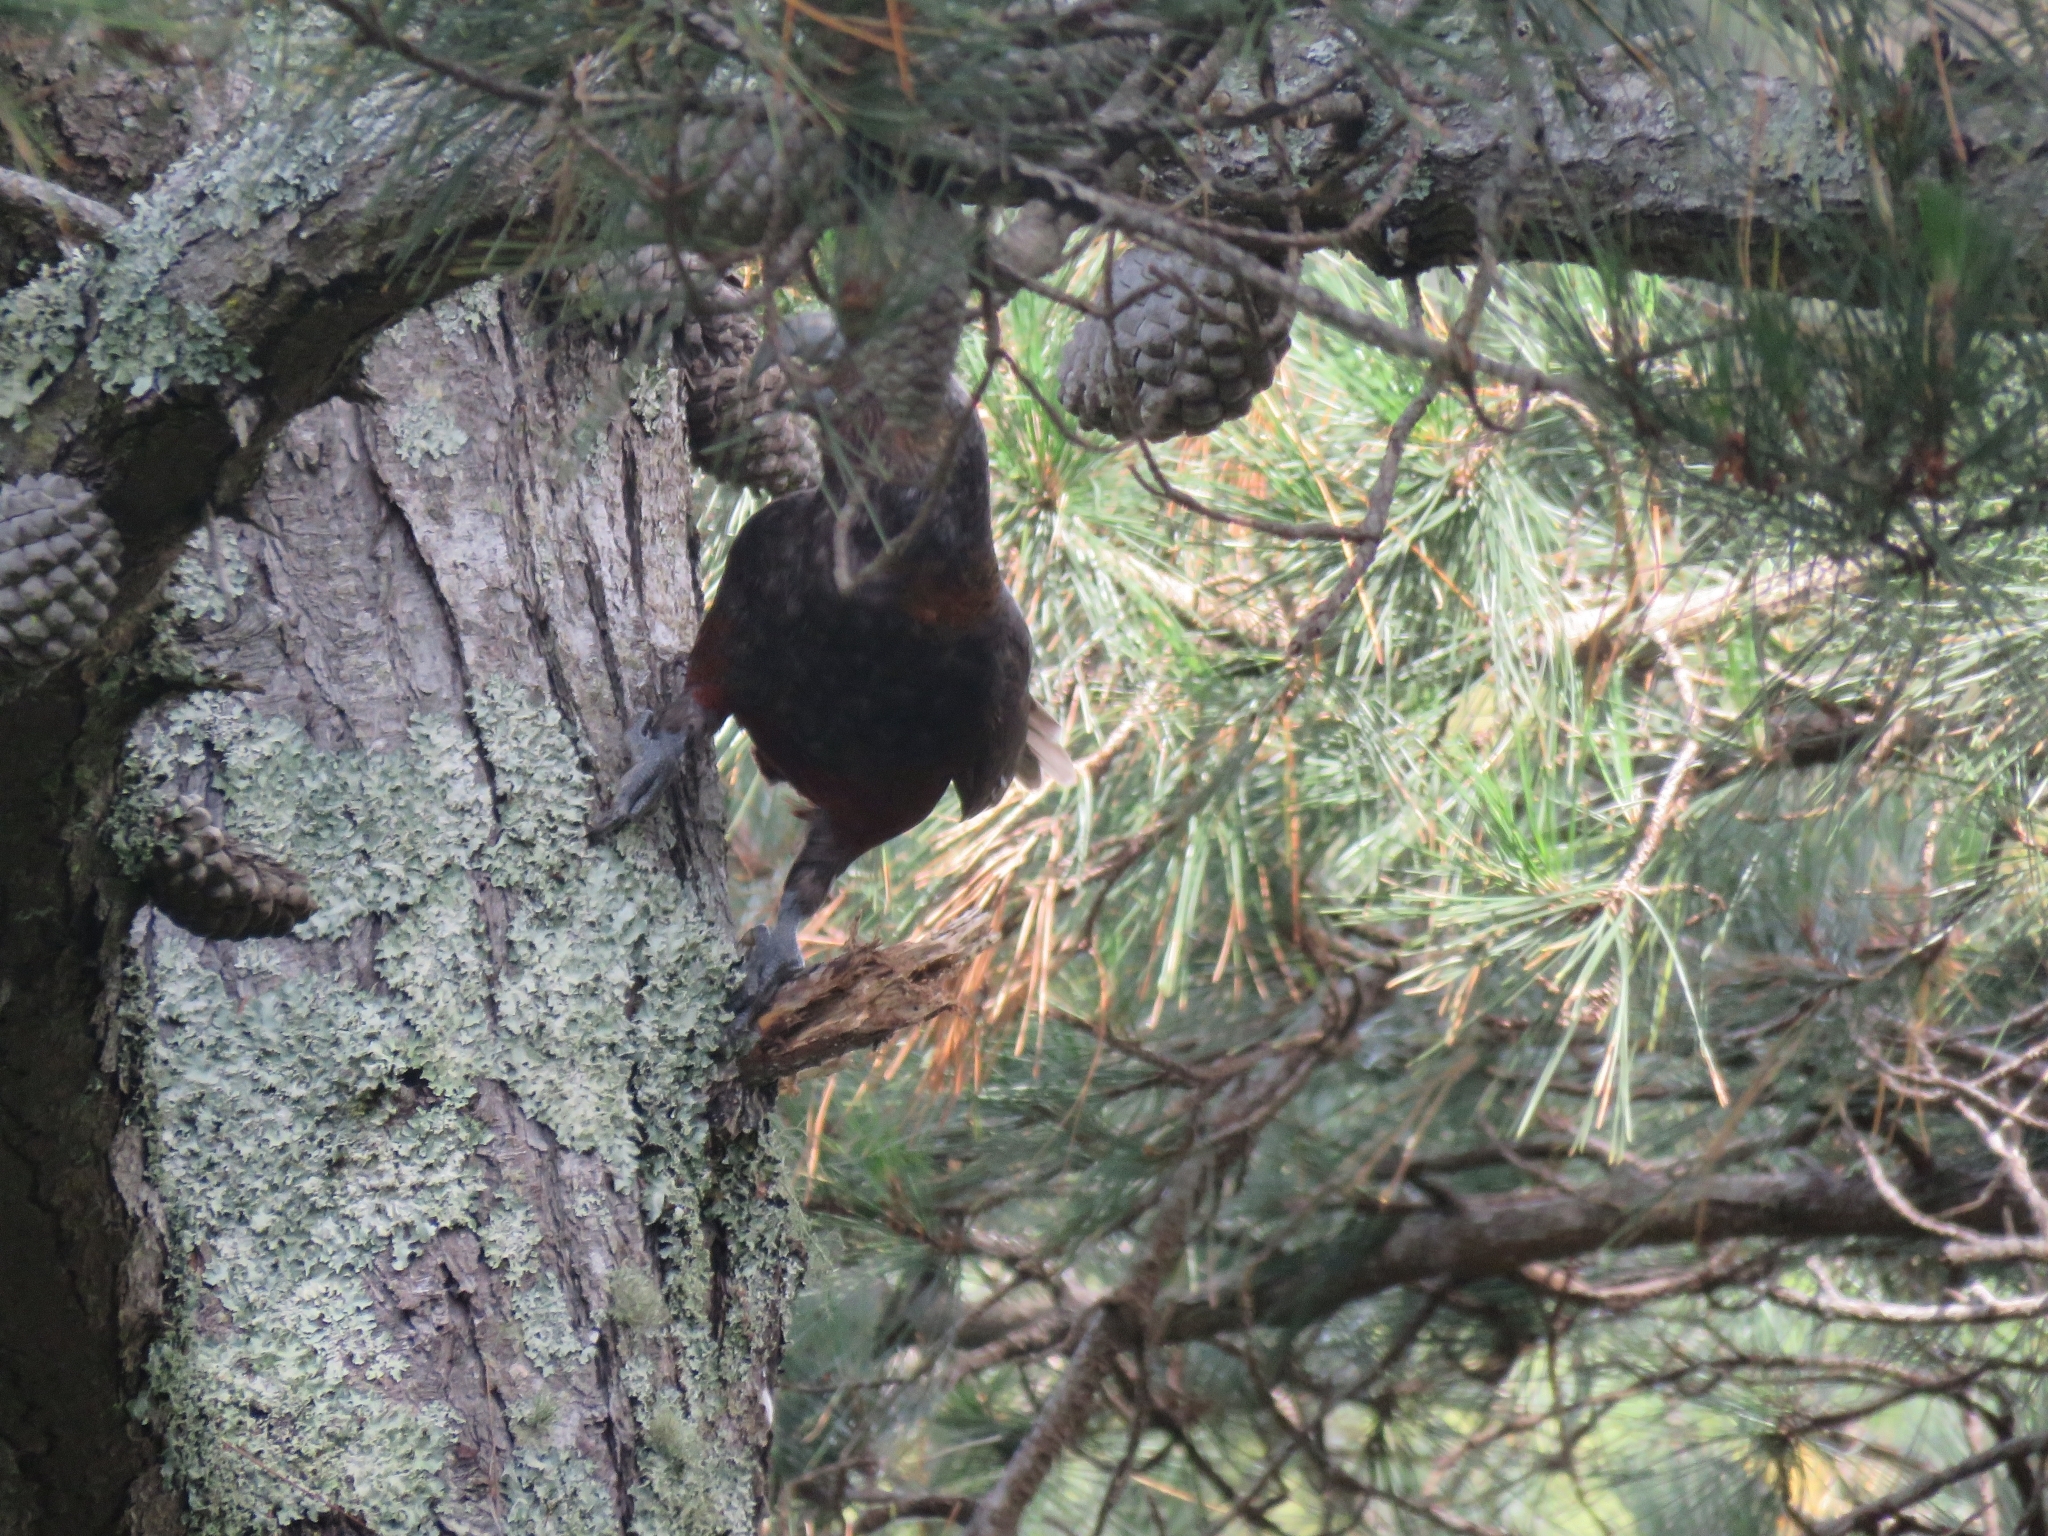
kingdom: Animalia
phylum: Chordata
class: Aves
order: Psittaciformes
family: Psittacidae
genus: Nestor
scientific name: Nestor meridionalis
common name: New zealand kaka
